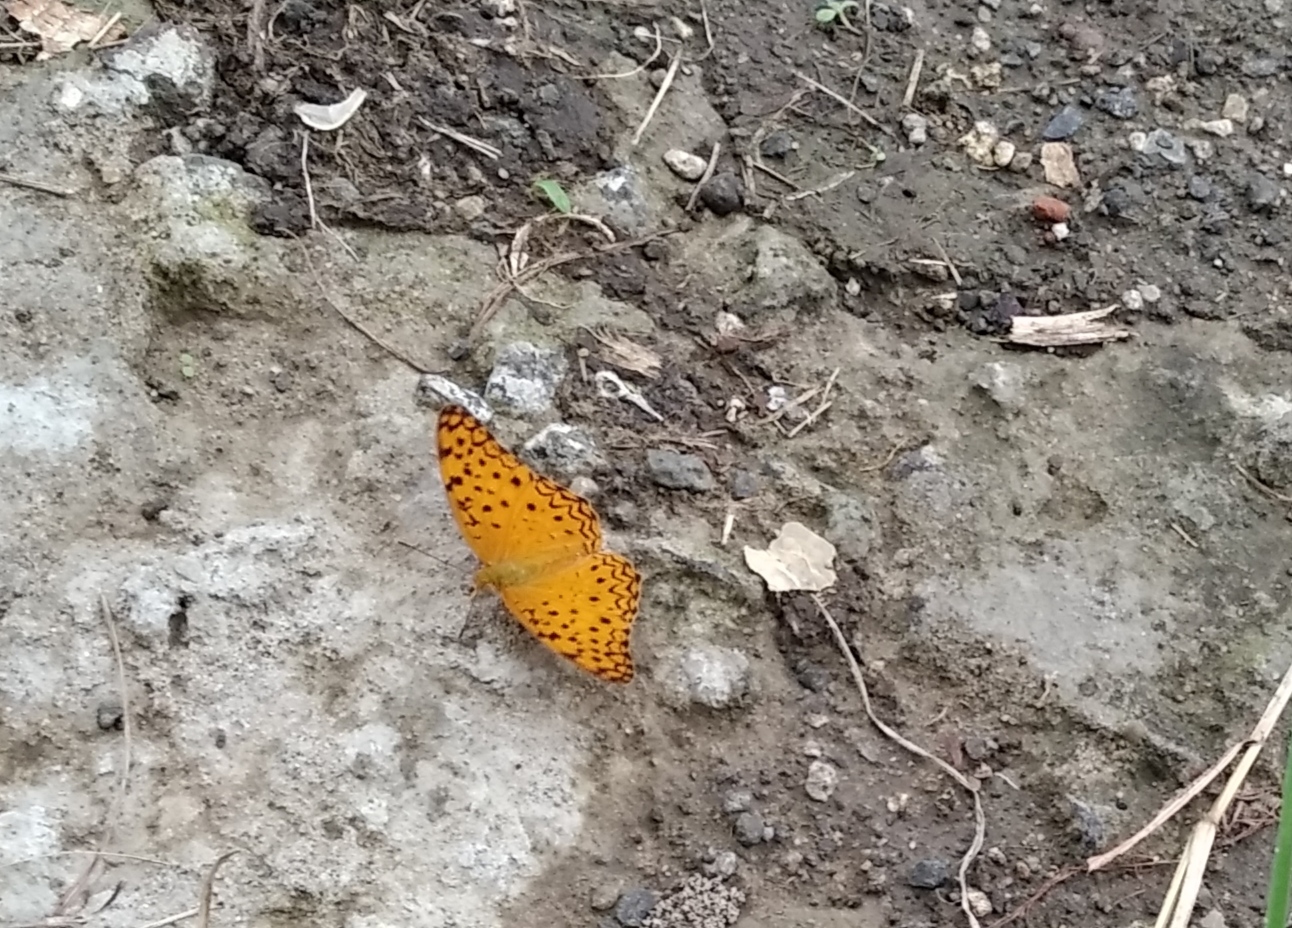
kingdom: Animalia
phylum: Arthropoda
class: Insecta
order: Lepidoptera
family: Nymphalidae
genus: Phalanta
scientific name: Phalanta phalantha
